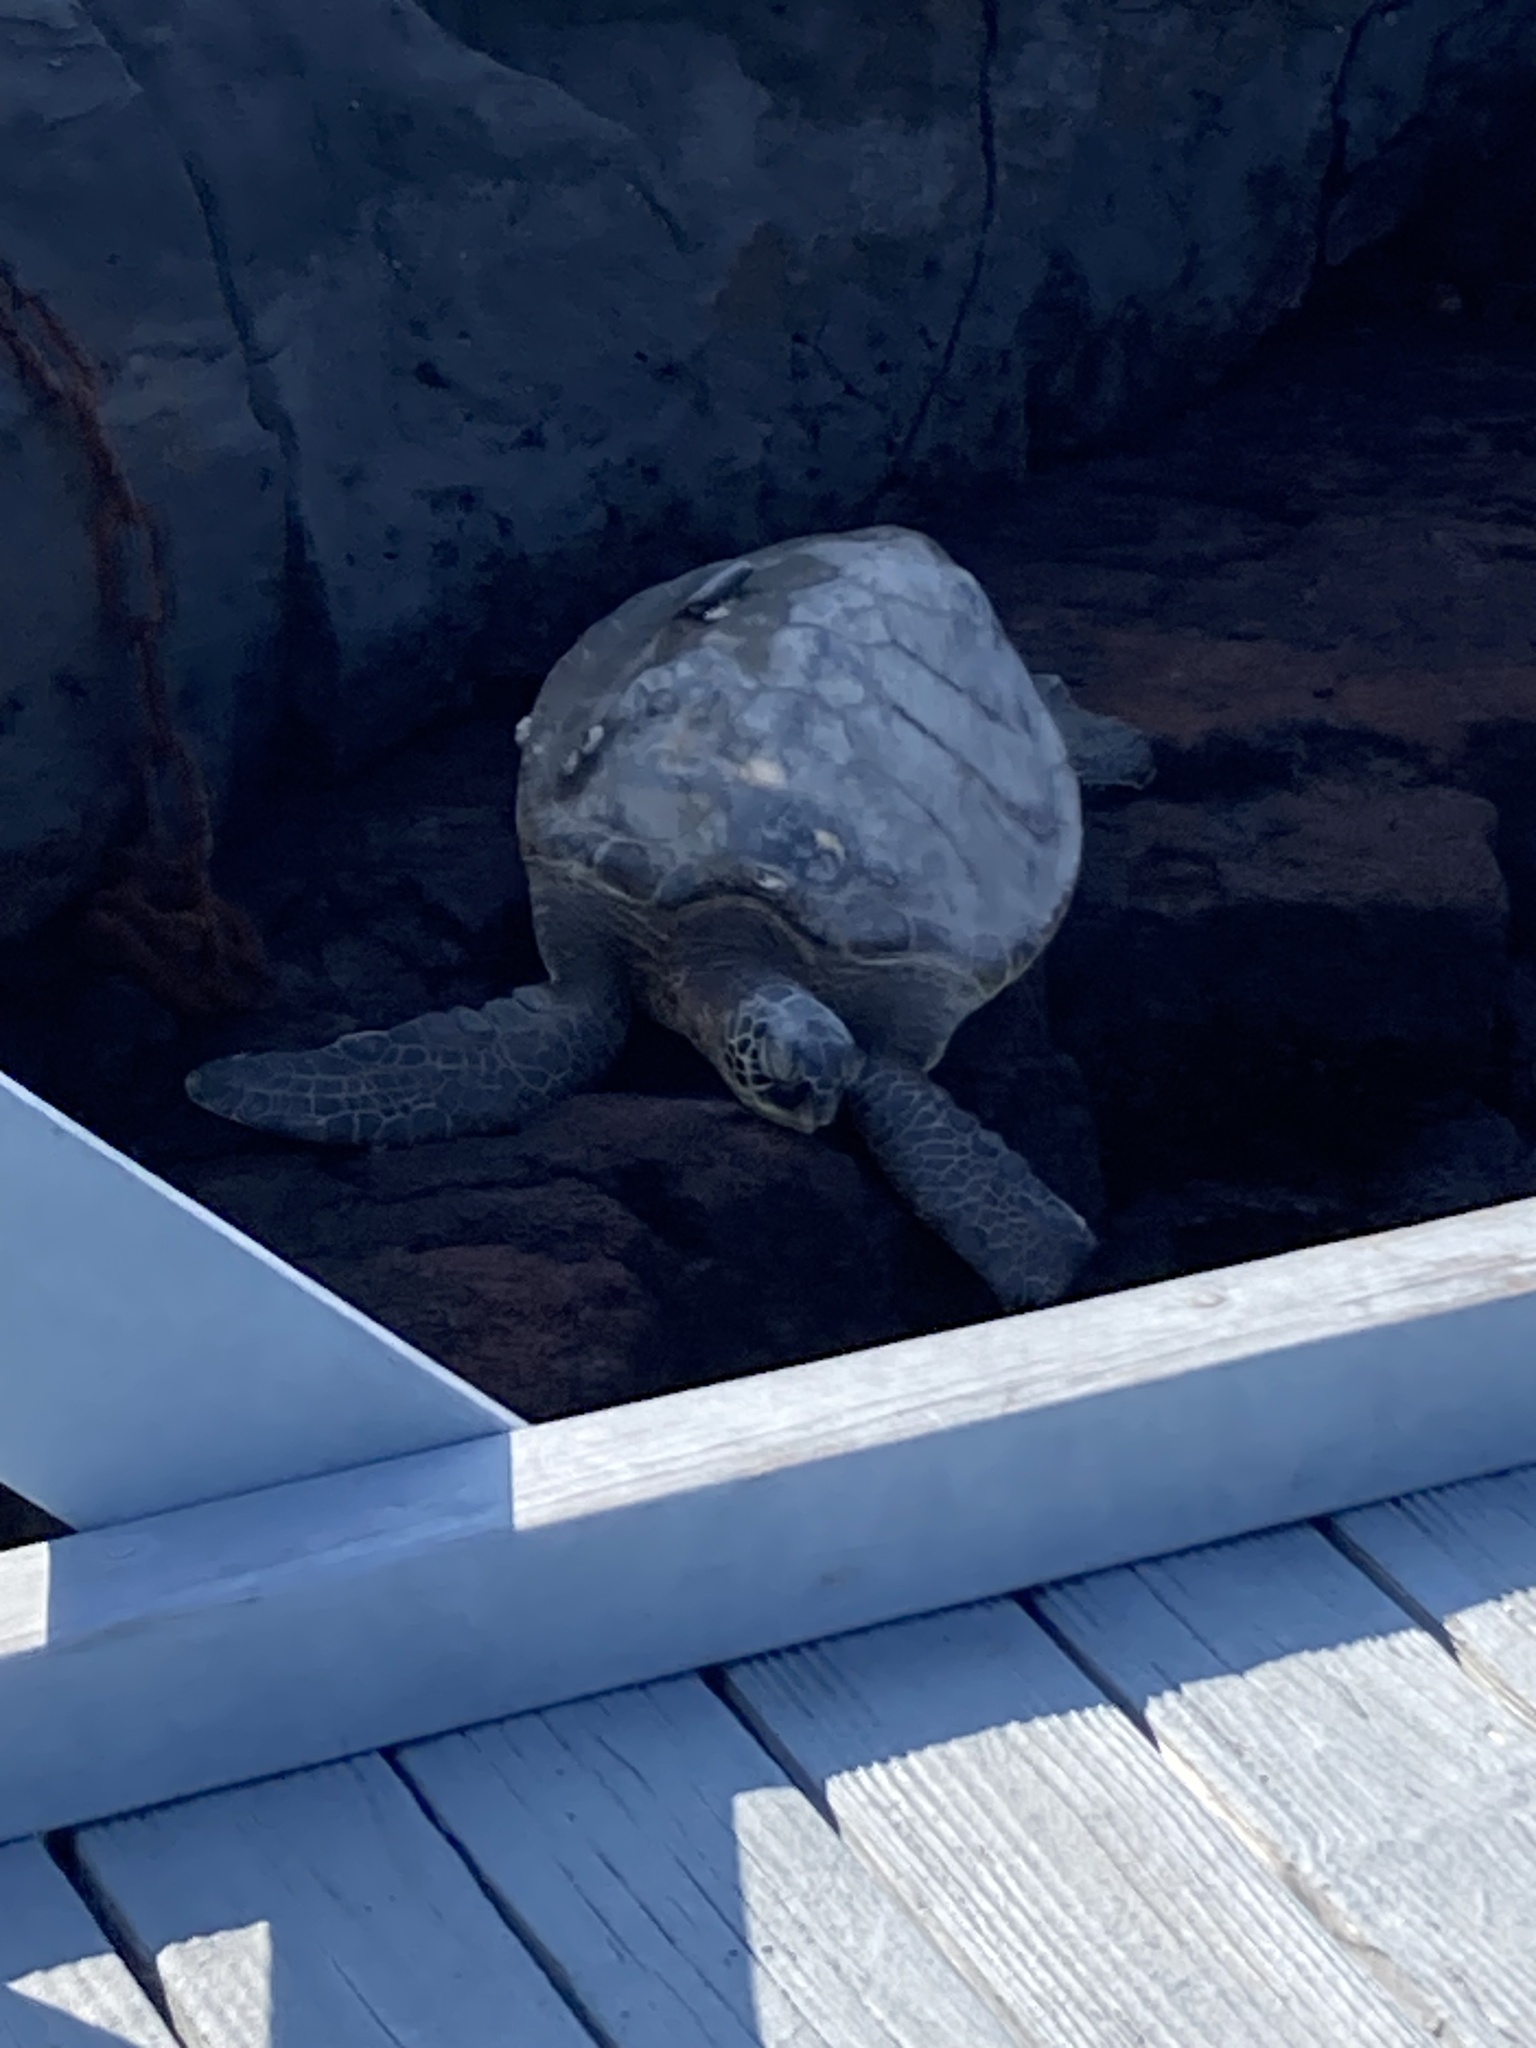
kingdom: Animalia
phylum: Chordata
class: Testudines
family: Cheloniidae
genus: Chelonia
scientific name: Chelonia mydas
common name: Green turtle
